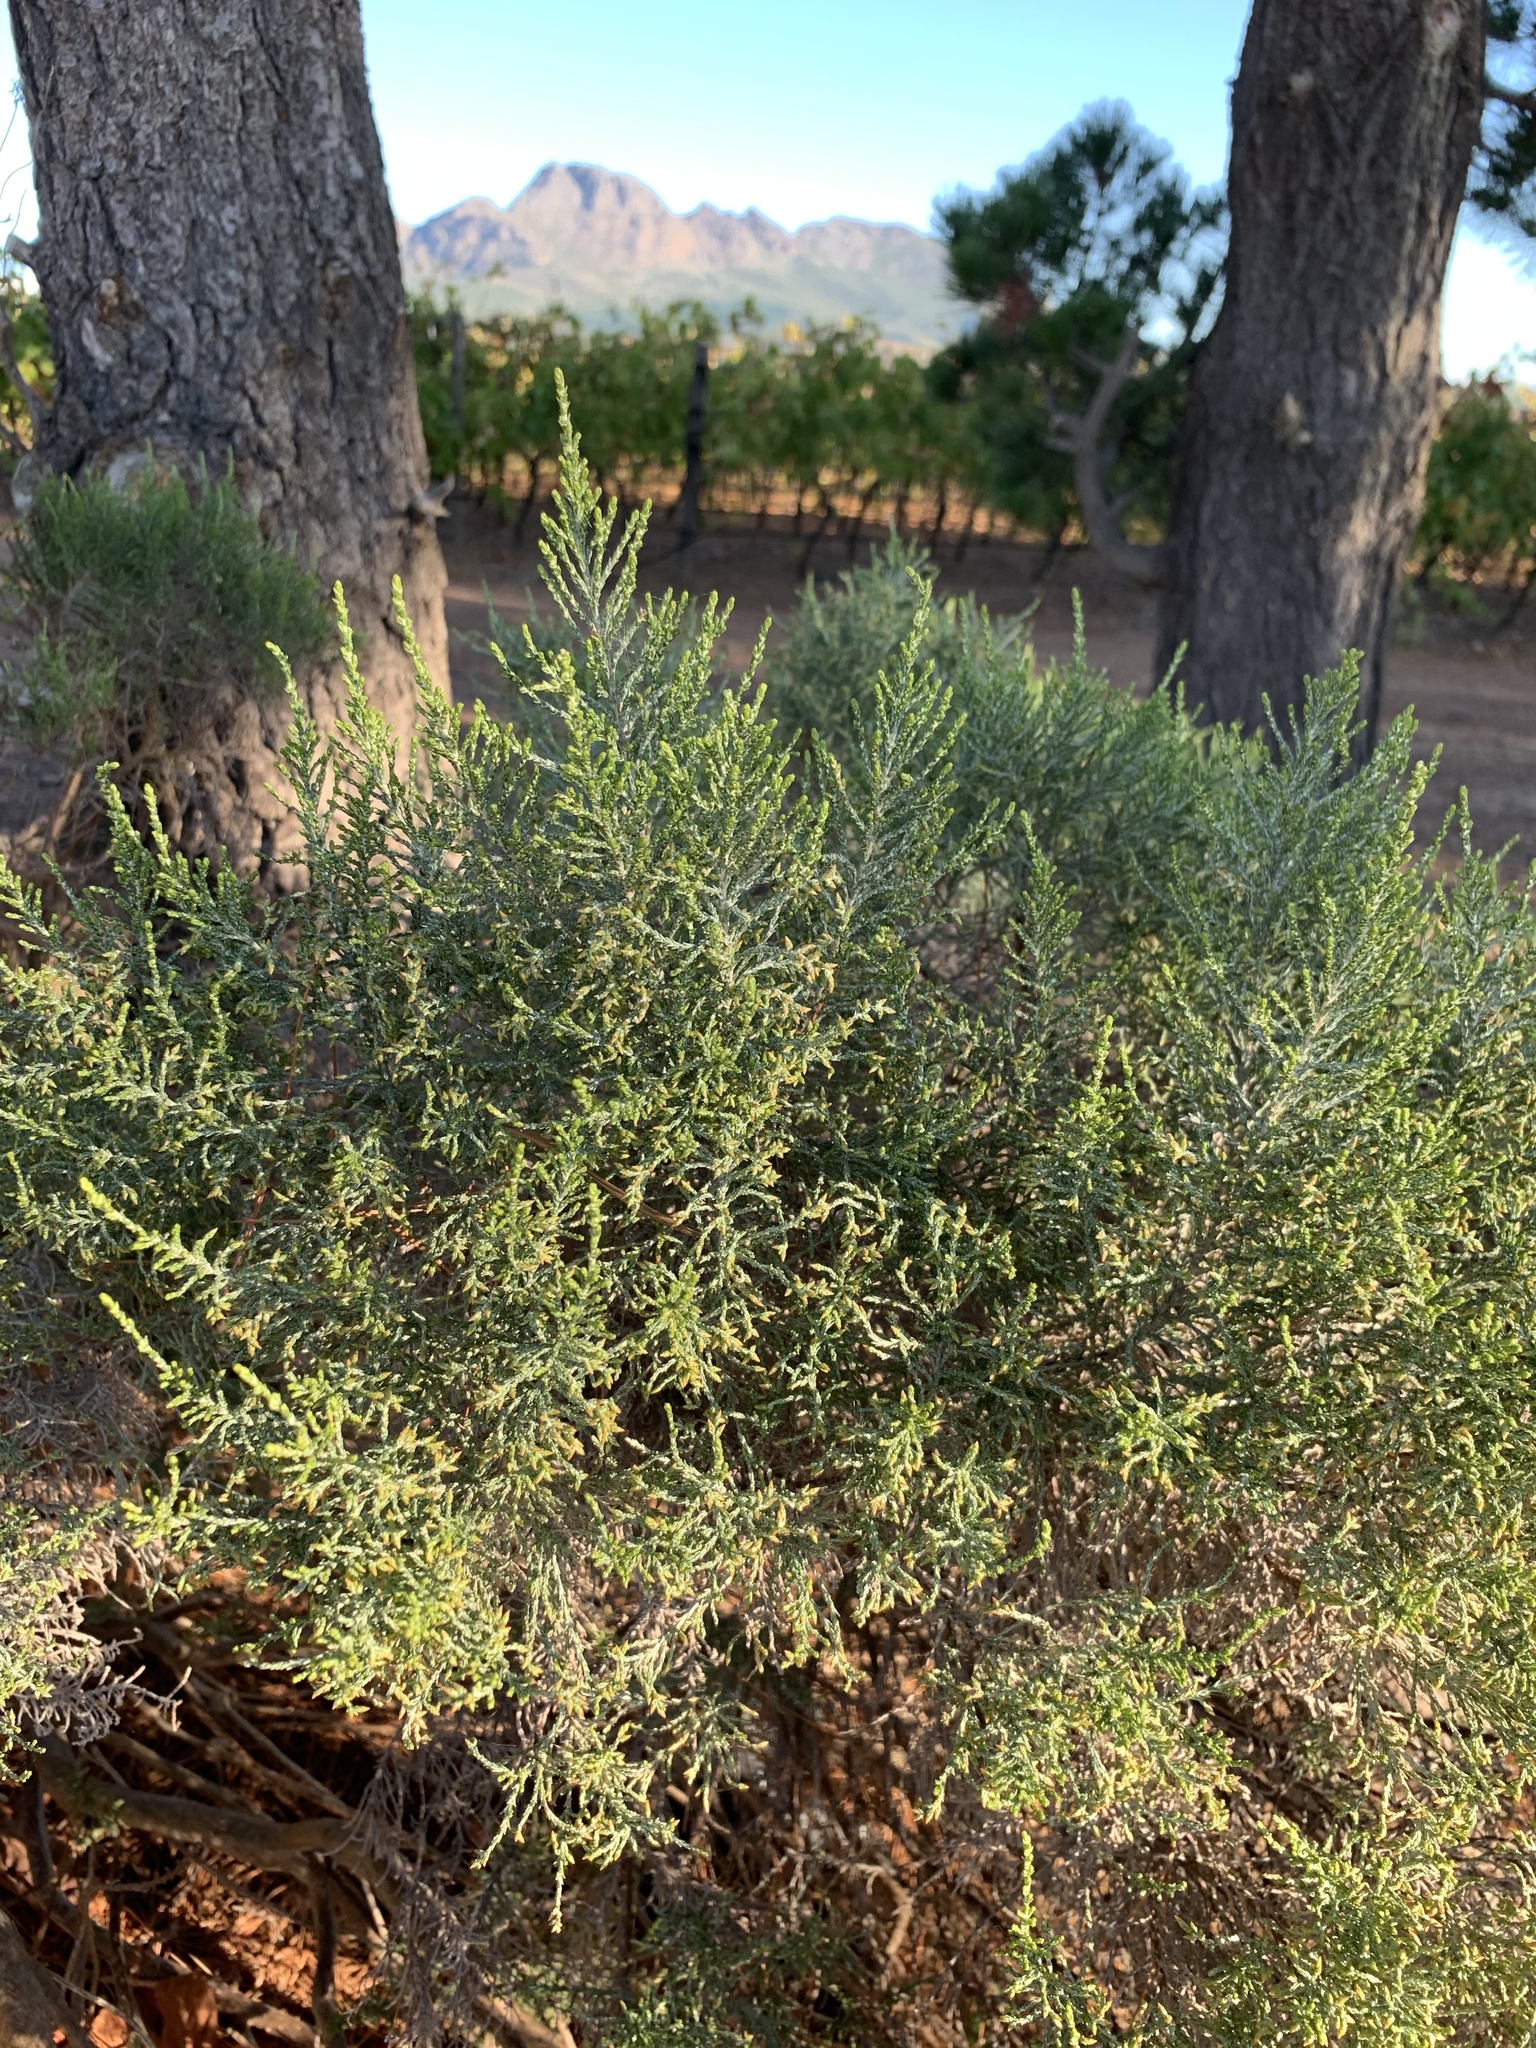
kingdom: Plantae
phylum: Tracheophyta
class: Magnoliopsida
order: Asterales
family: Asteraceae
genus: Dicerothamnus
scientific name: Dicerothamnus rhinocerotis
